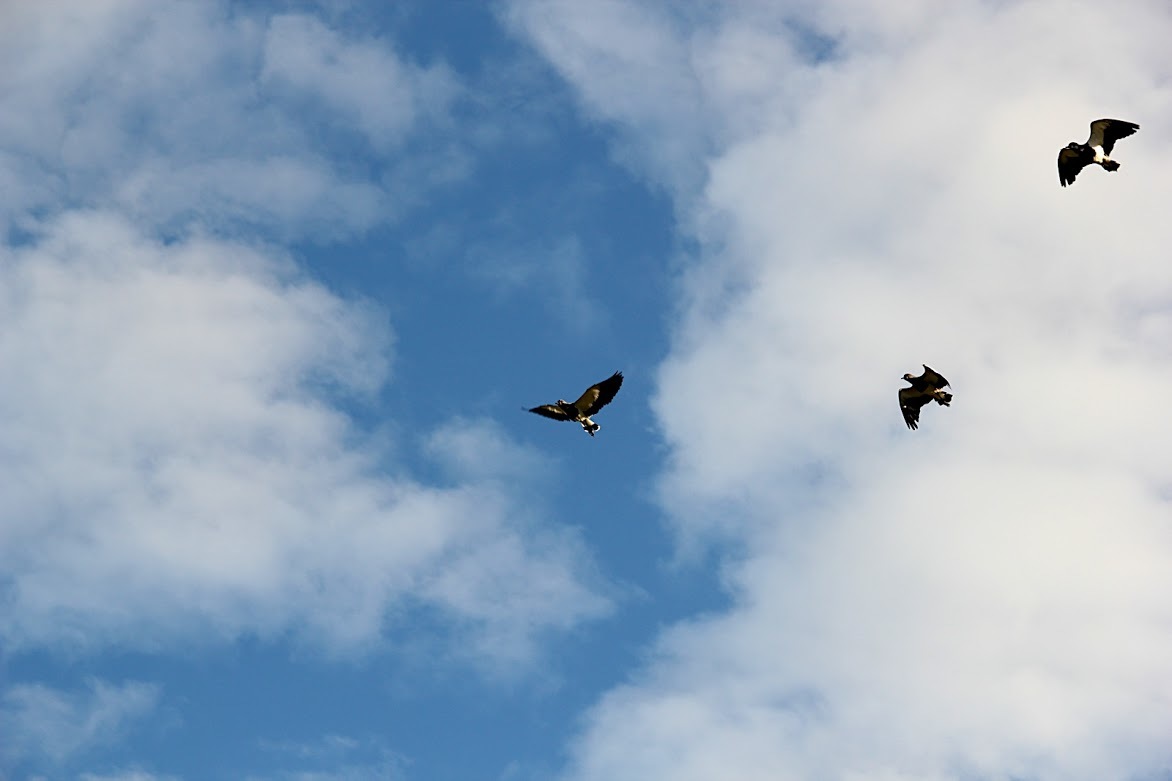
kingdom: Animalia
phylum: Chordata
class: Aves
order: Charadriiformes
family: Charadriidae
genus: Vanellus
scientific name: Vanellus chilensis
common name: Southern lapwing
